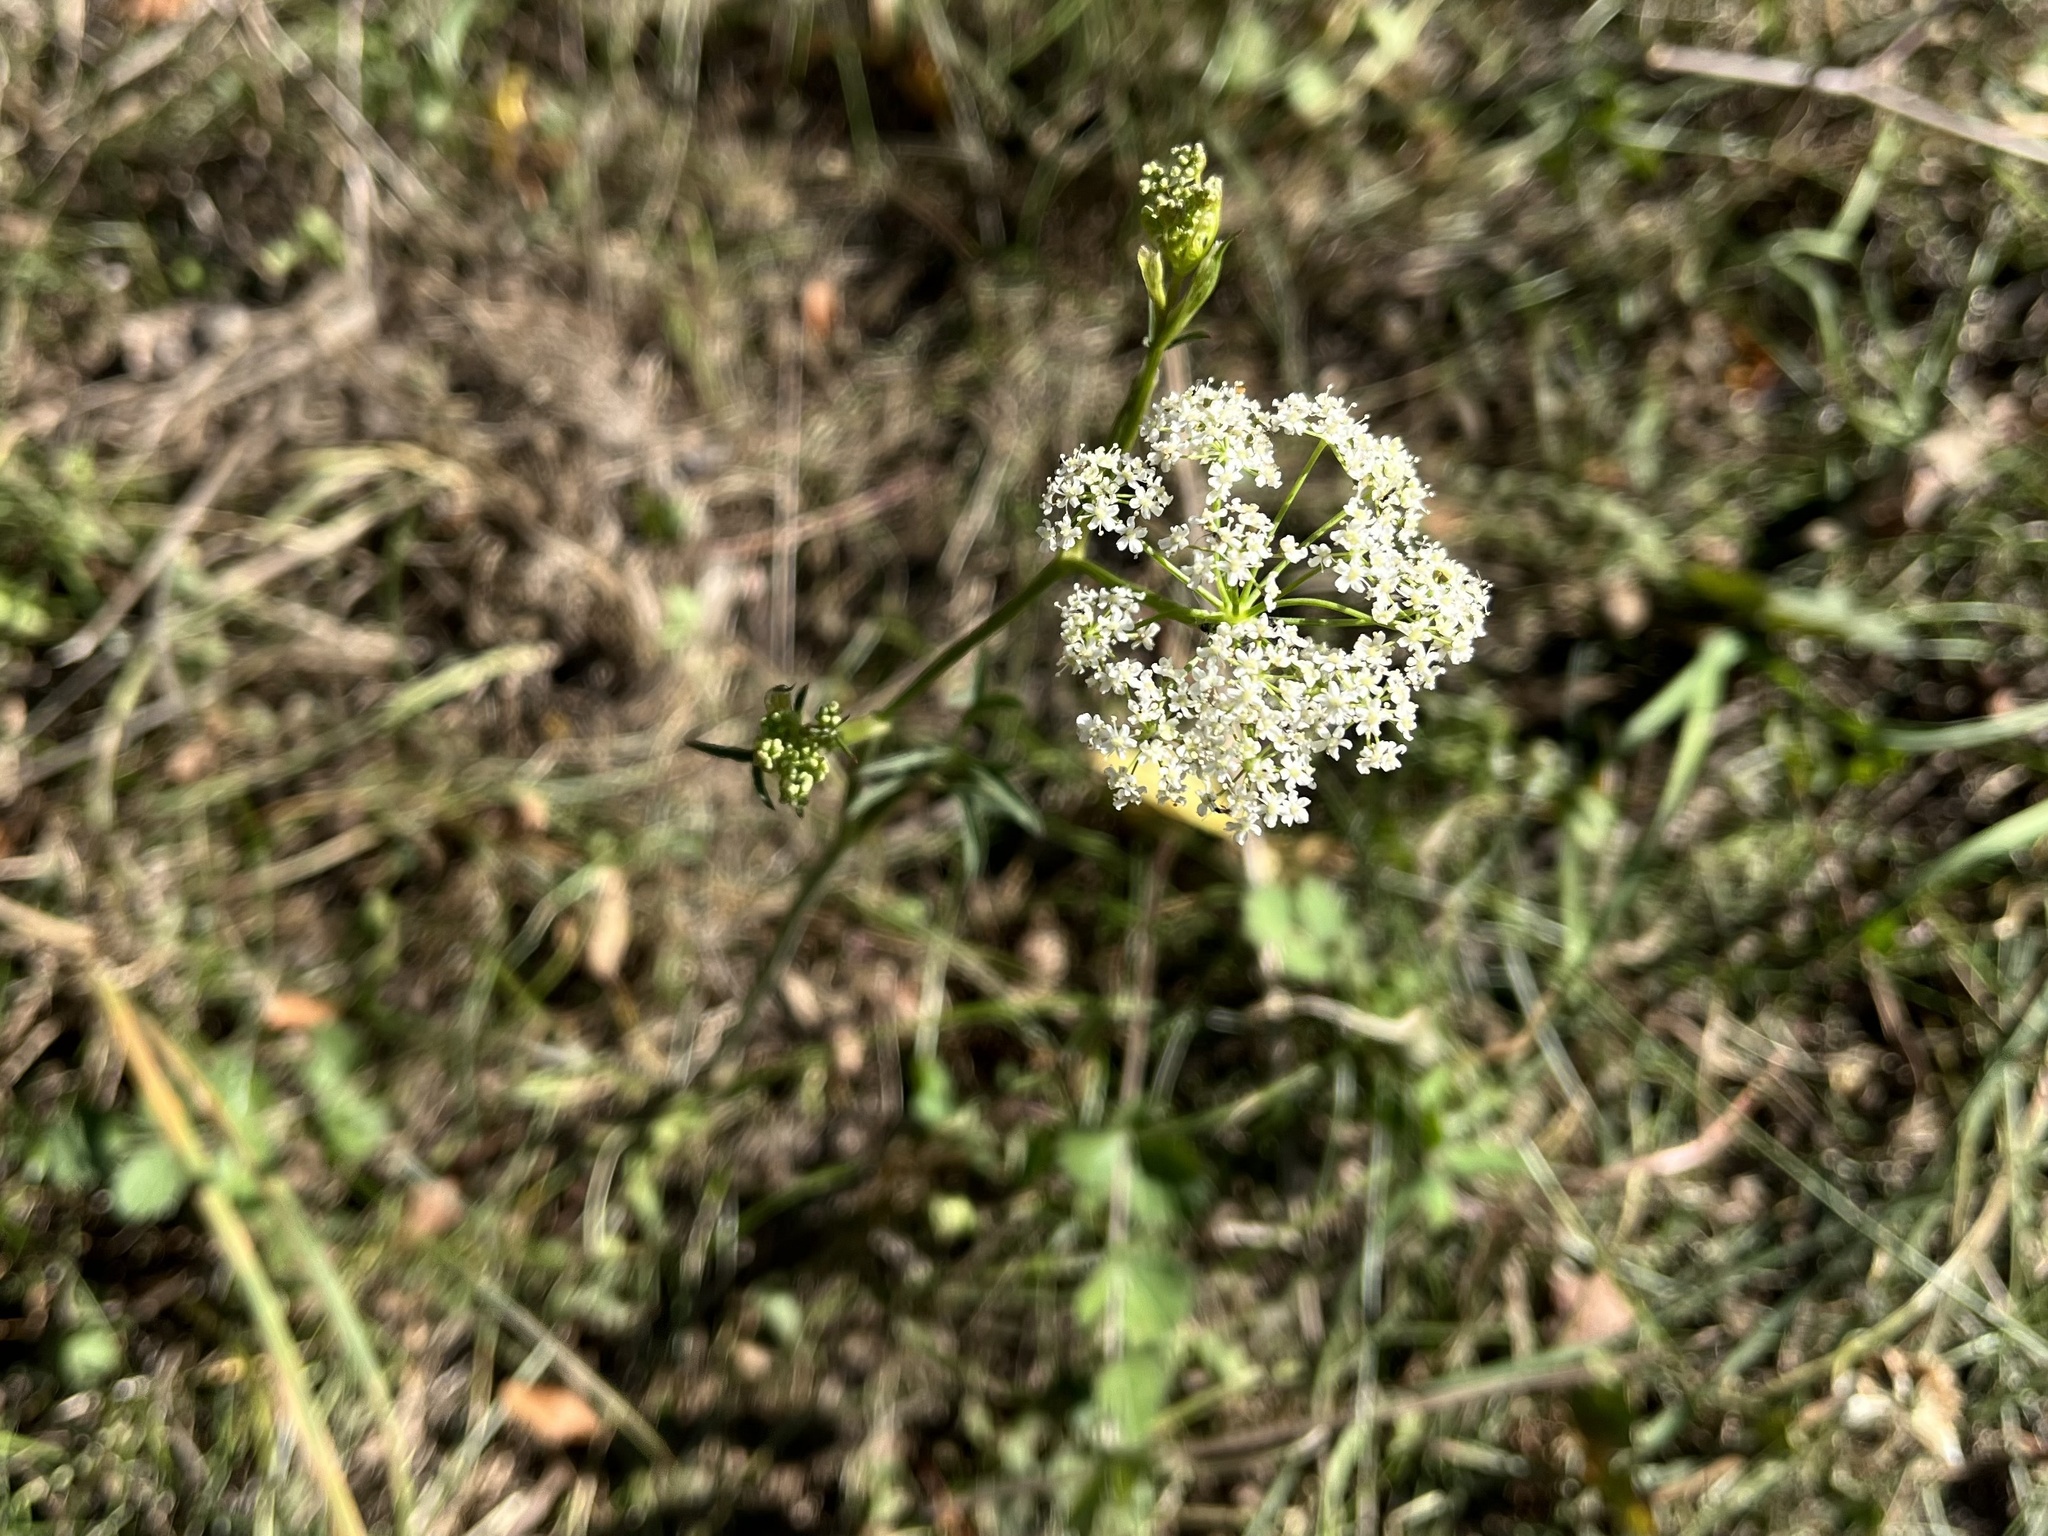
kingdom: Plantae
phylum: Tracheophyta
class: Magnoliopsida
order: Apiales
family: Apiaceae
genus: Pimpinella
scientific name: Pimpinella saxifraga
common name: Burnet-saxifrage
